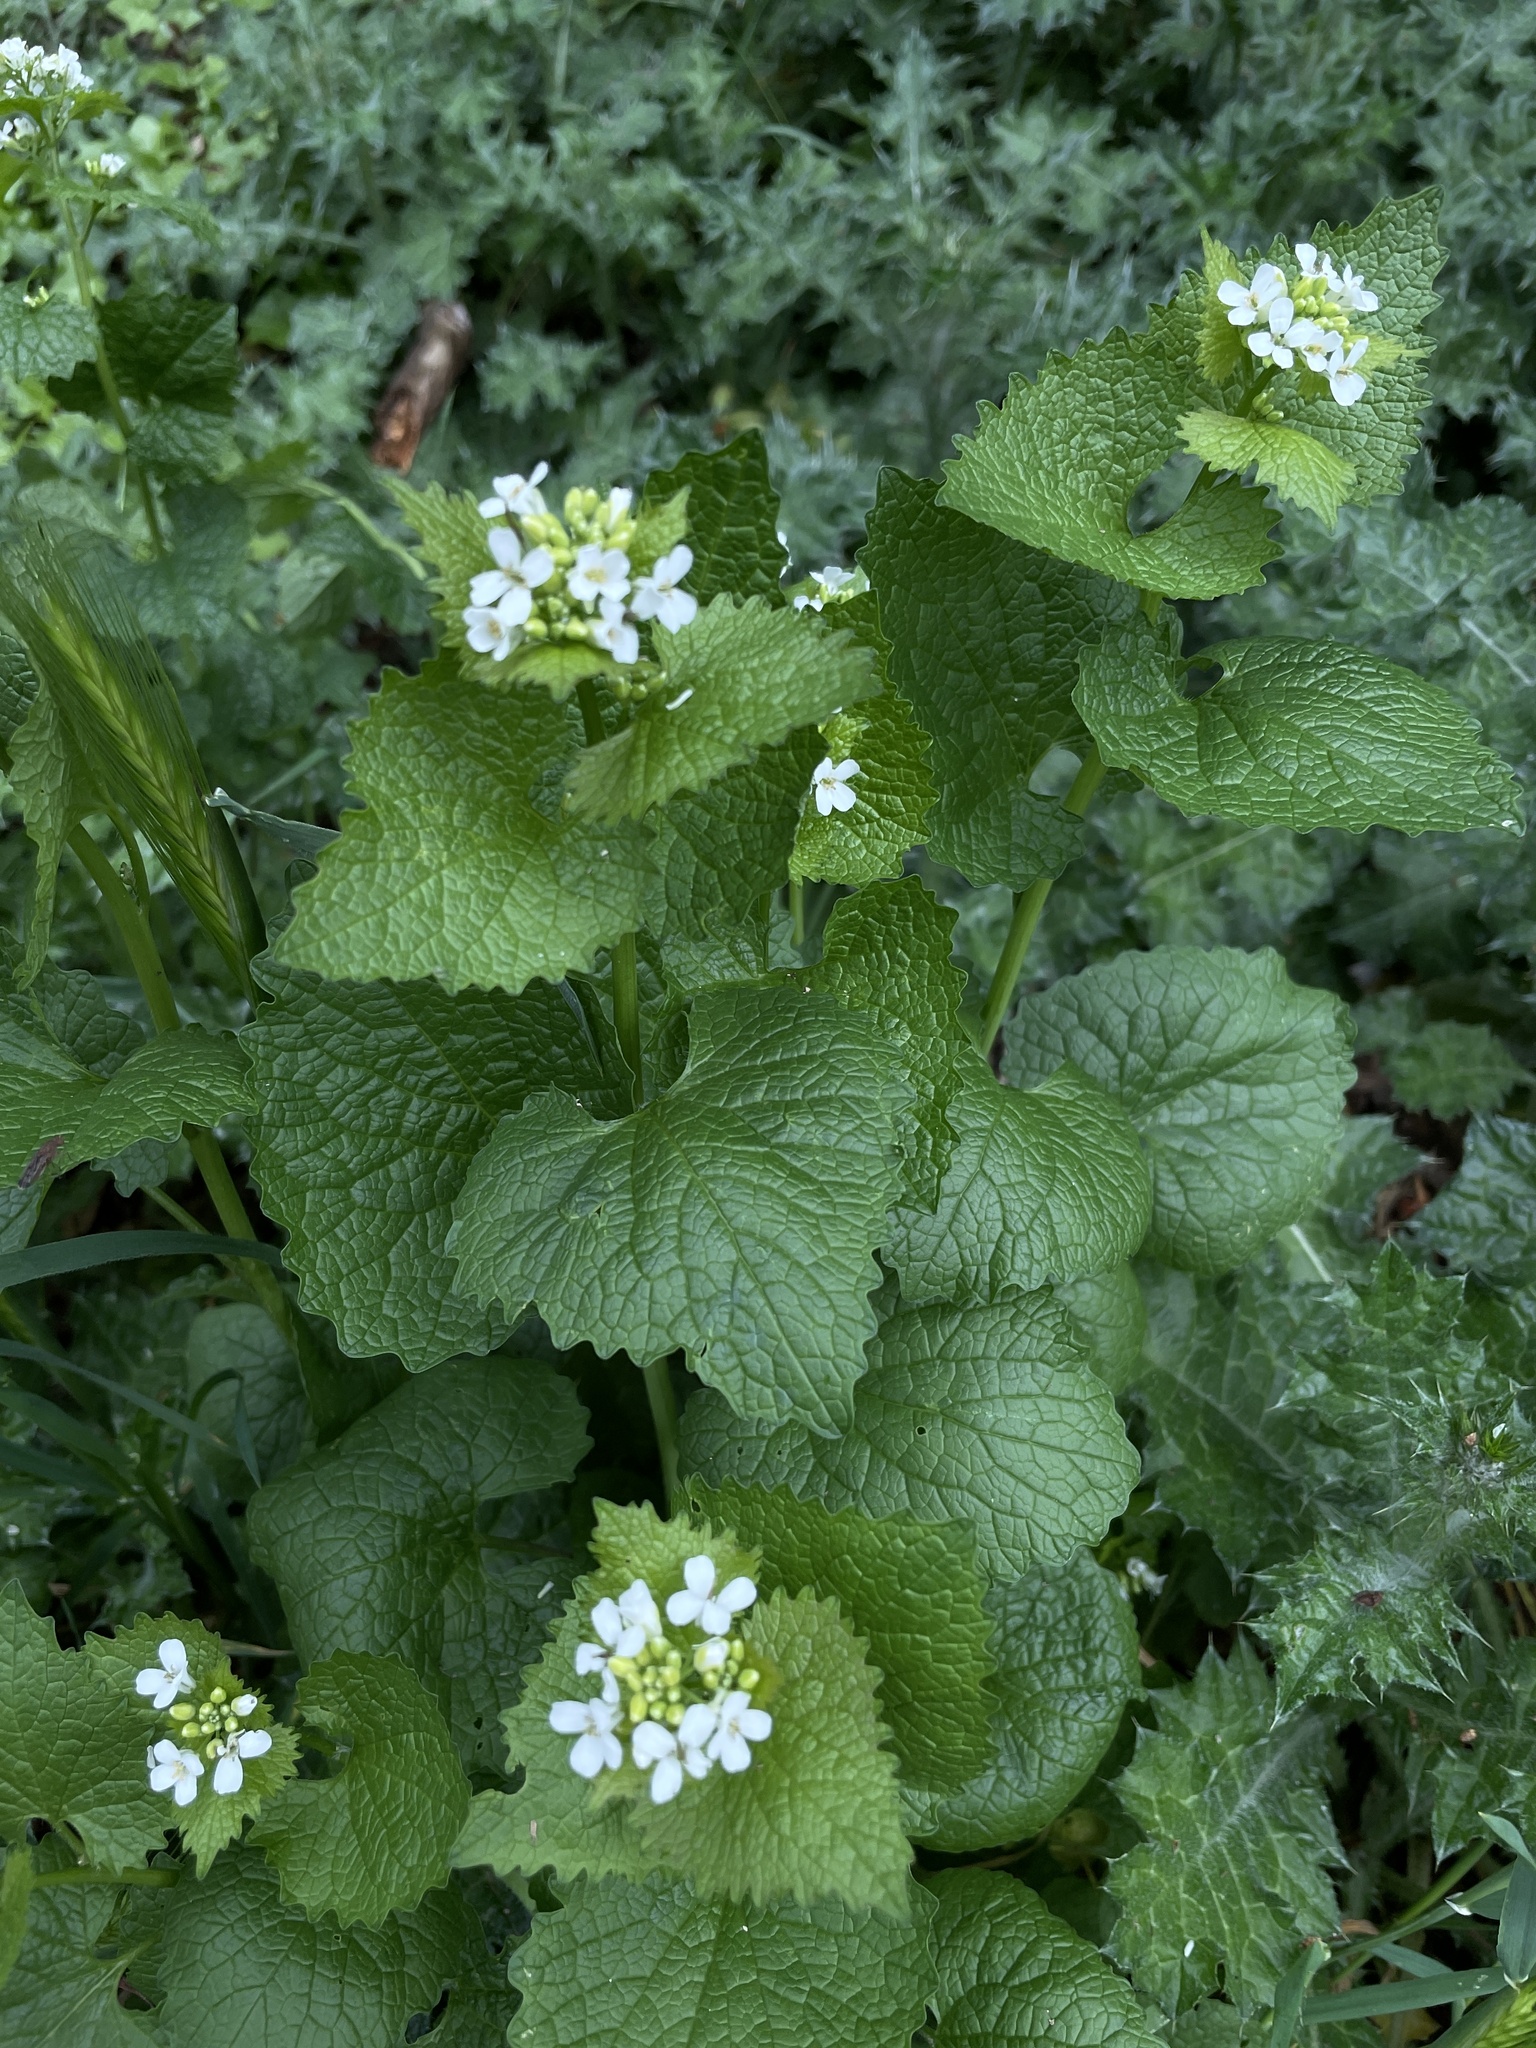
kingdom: Plantae
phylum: Tracheophyta
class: Magnoliopsida
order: Brassicales
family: Brassicaceae
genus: Alliaria
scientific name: Alliaria petiolata
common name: Garlic mustard
